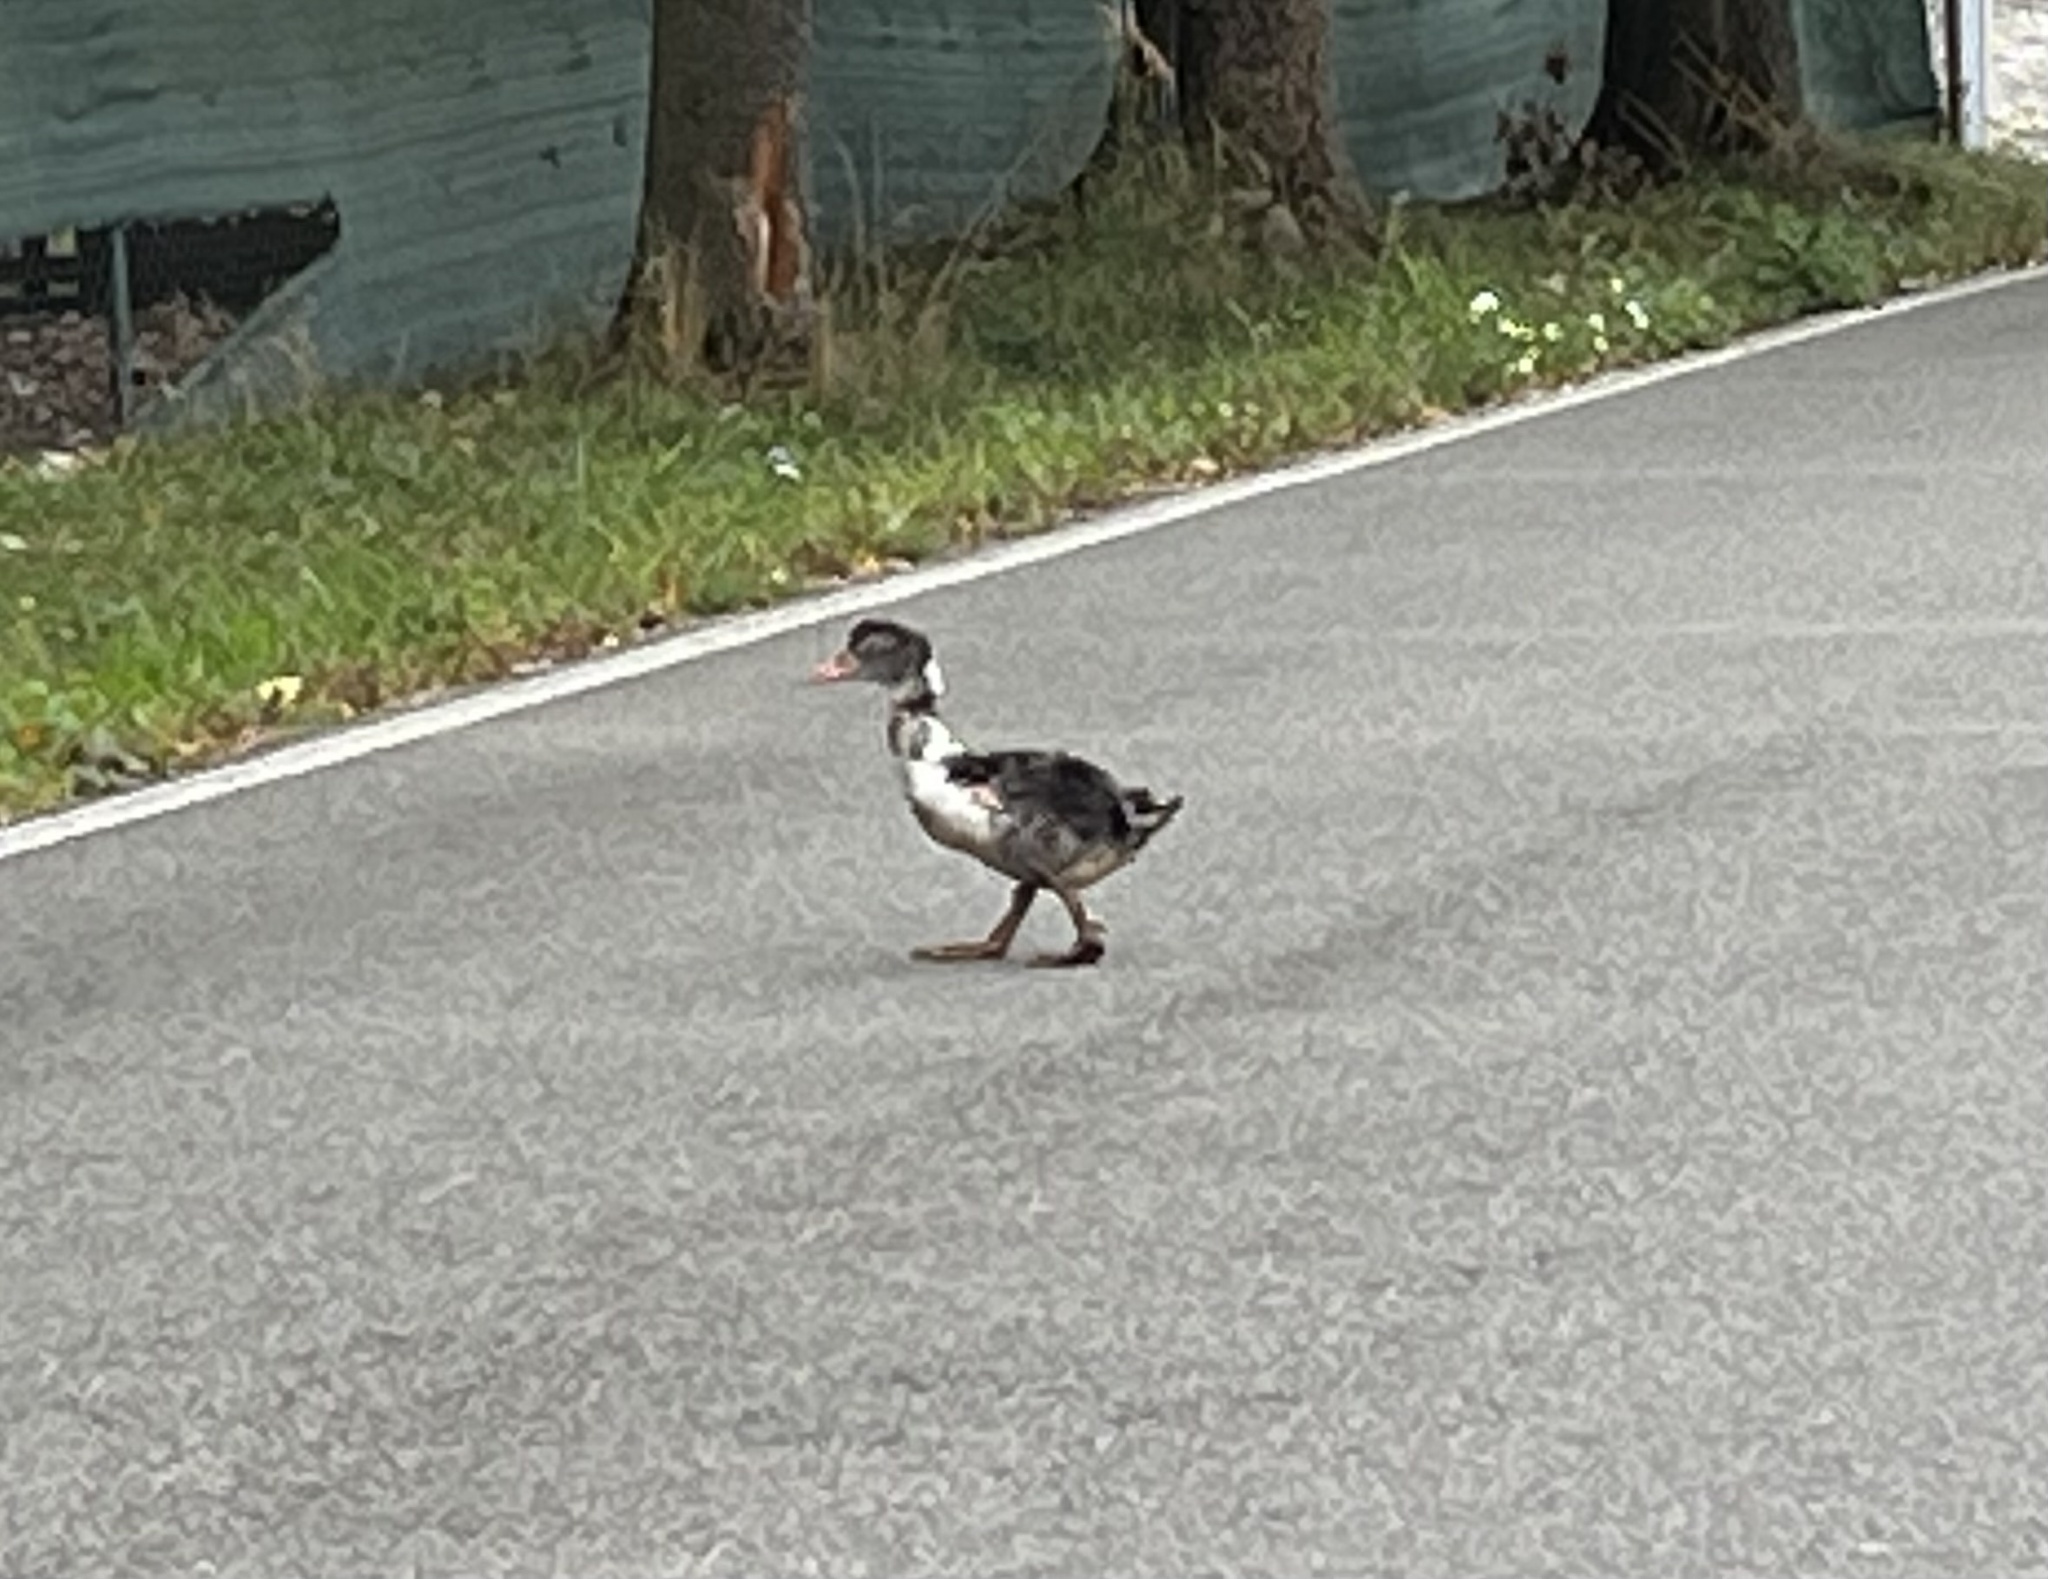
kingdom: Animalia
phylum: Chordata
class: Aves
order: Anseriformes
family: Anatidae
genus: Anas
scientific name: Anas platyrhynchos
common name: Mallard
